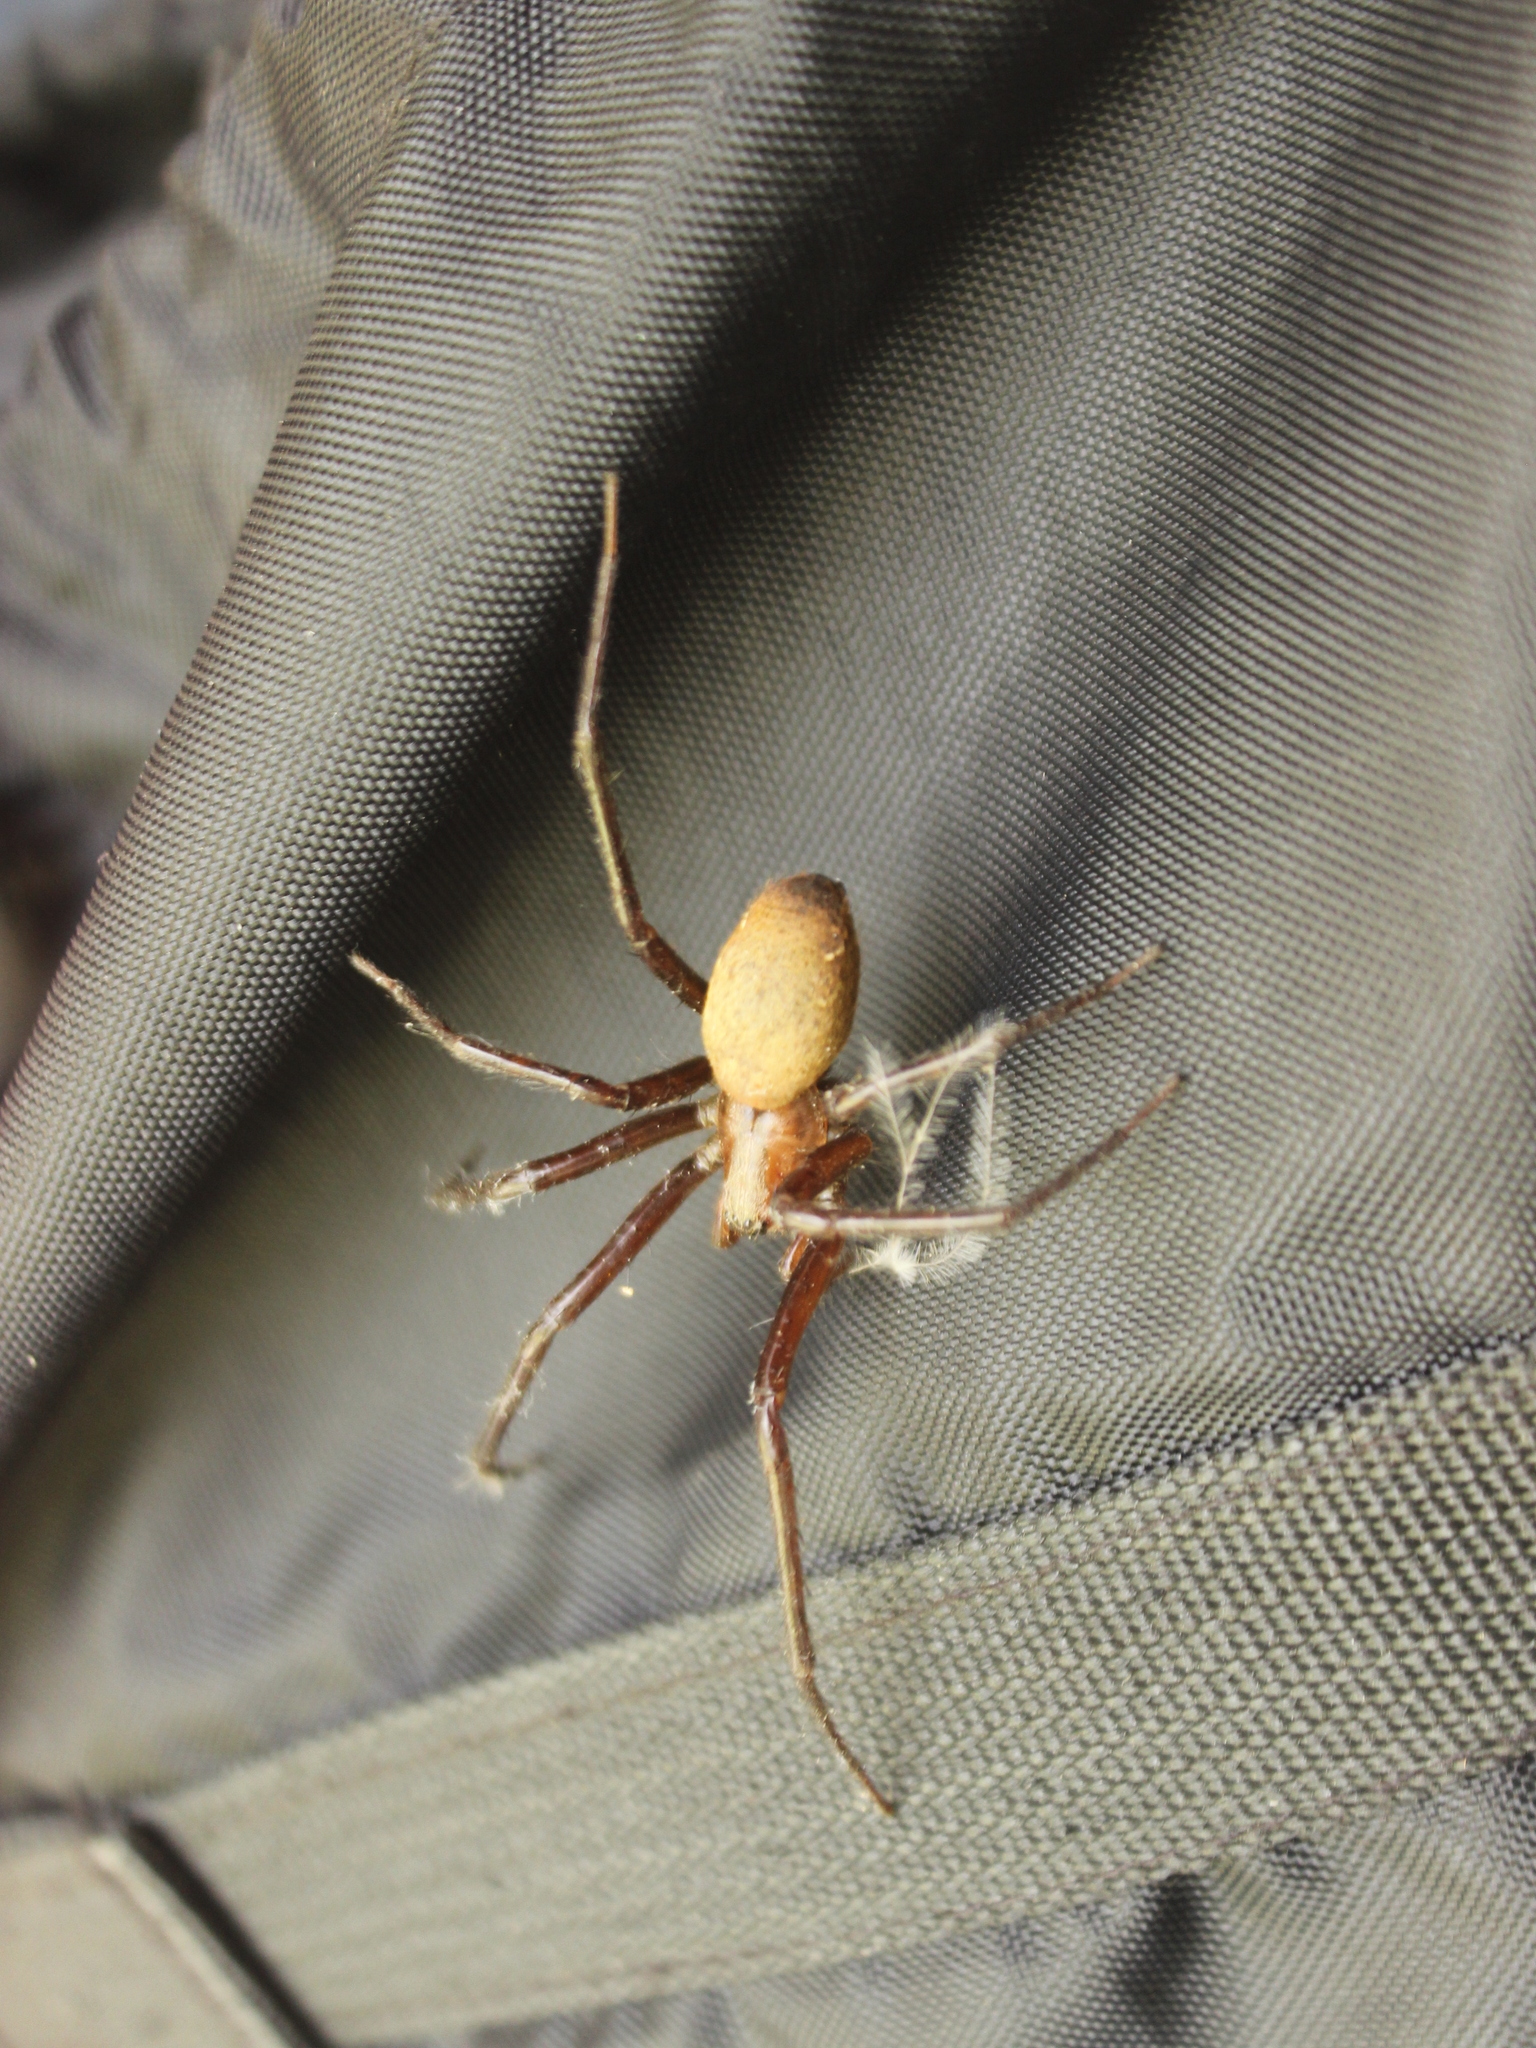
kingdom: Animalia
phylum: Arthropoda
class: Arachnida
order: Araneae
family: Desidae
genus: Cambridgea
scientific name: Cambridgea foliata
